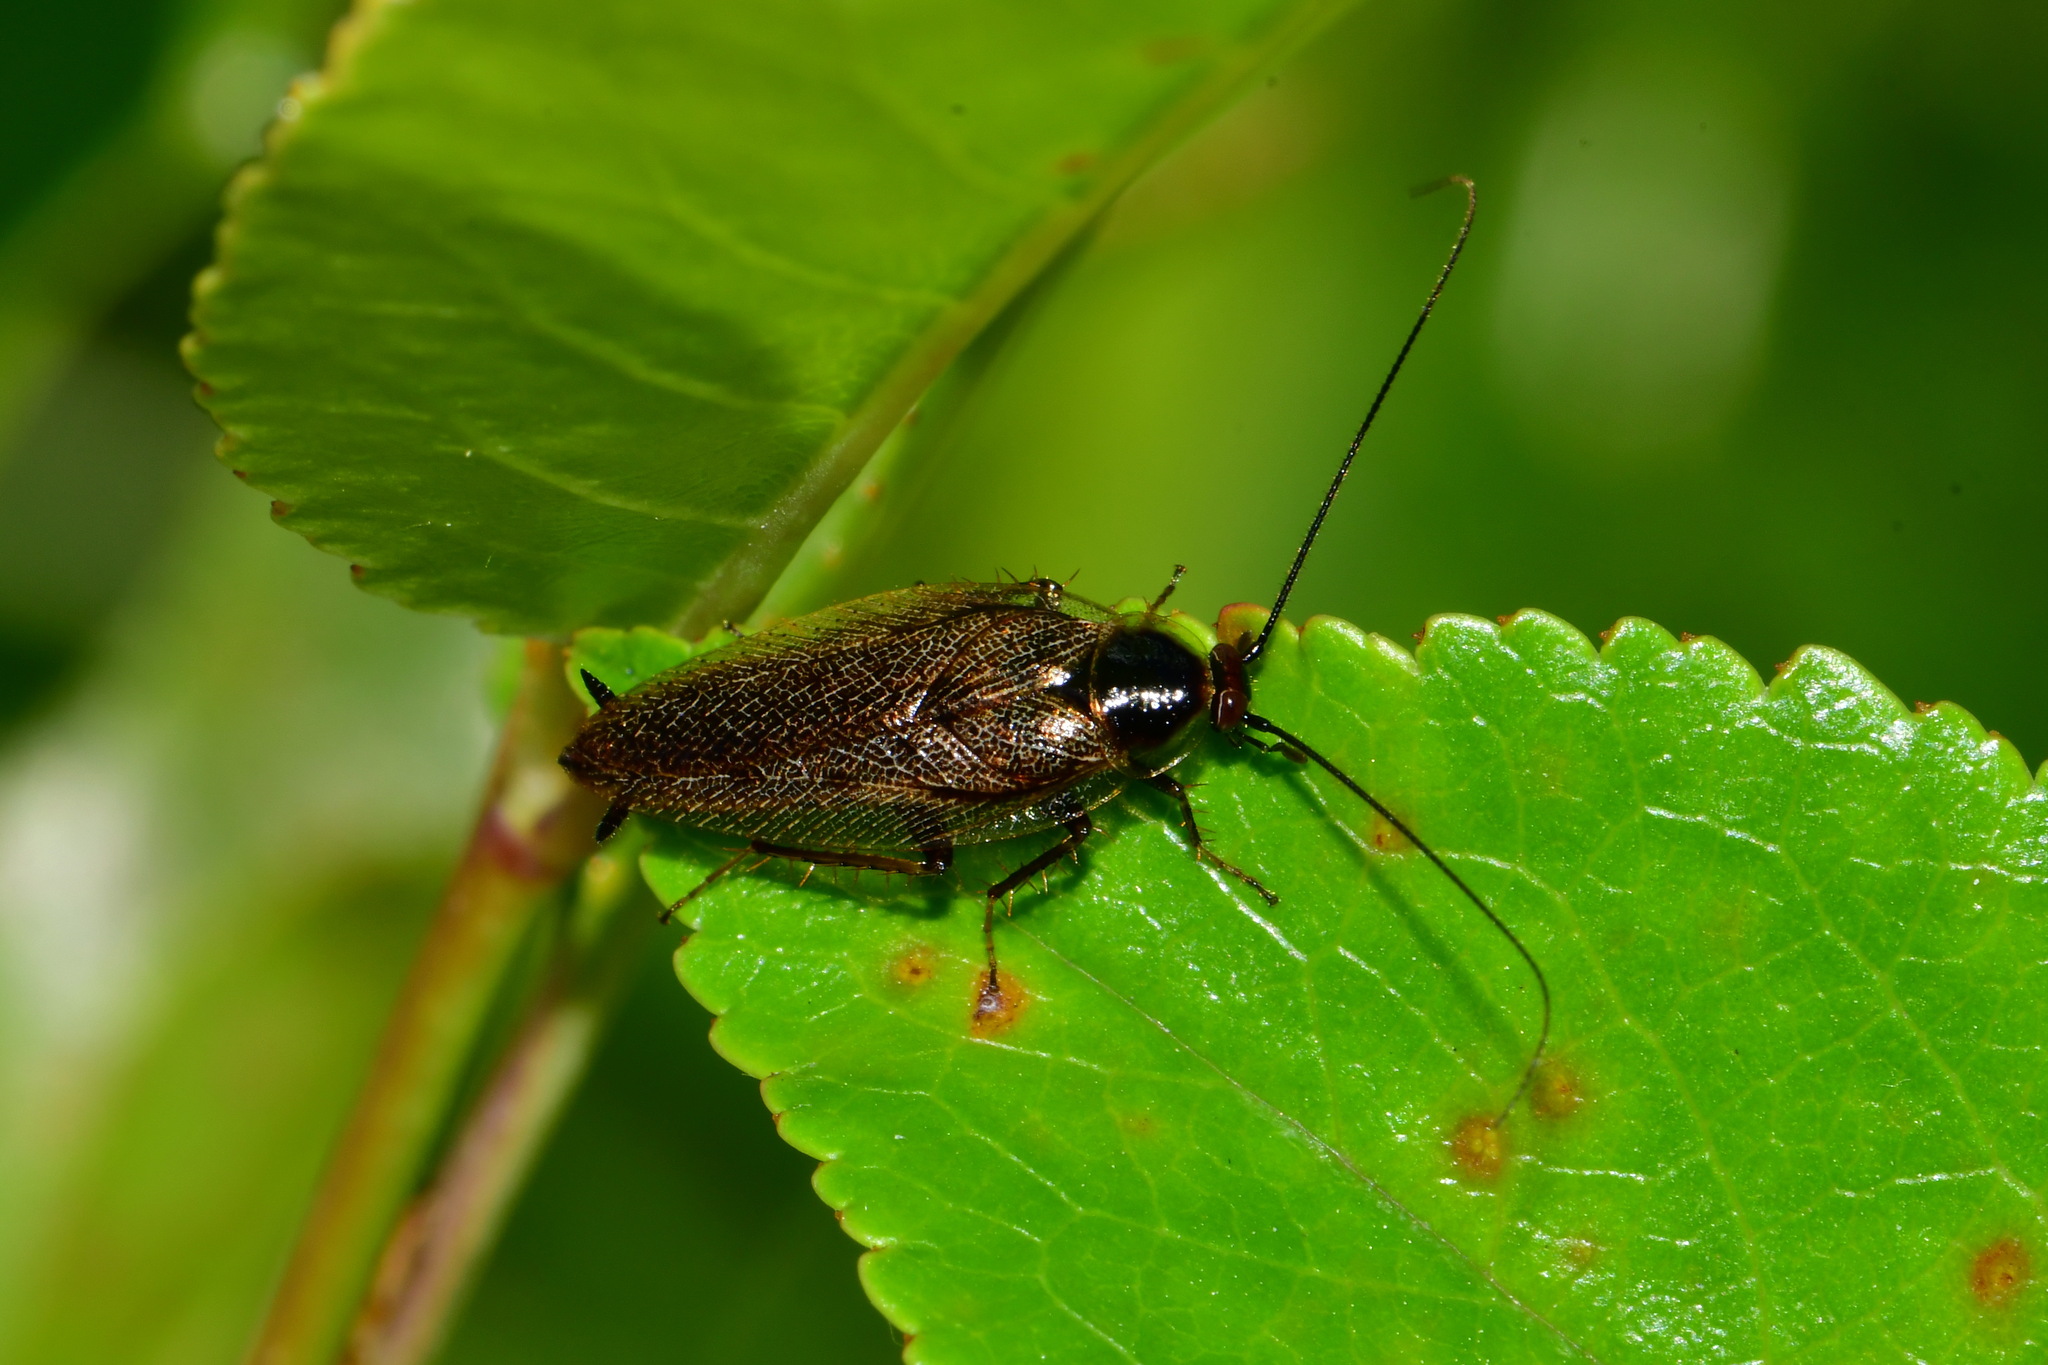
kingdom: Animalia
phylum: Arthropoda
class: Insecta
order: Blattodea
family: Ectobiidae
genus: Ectobius
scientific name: Ectobius lapponicus
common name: Dusky cockroach
